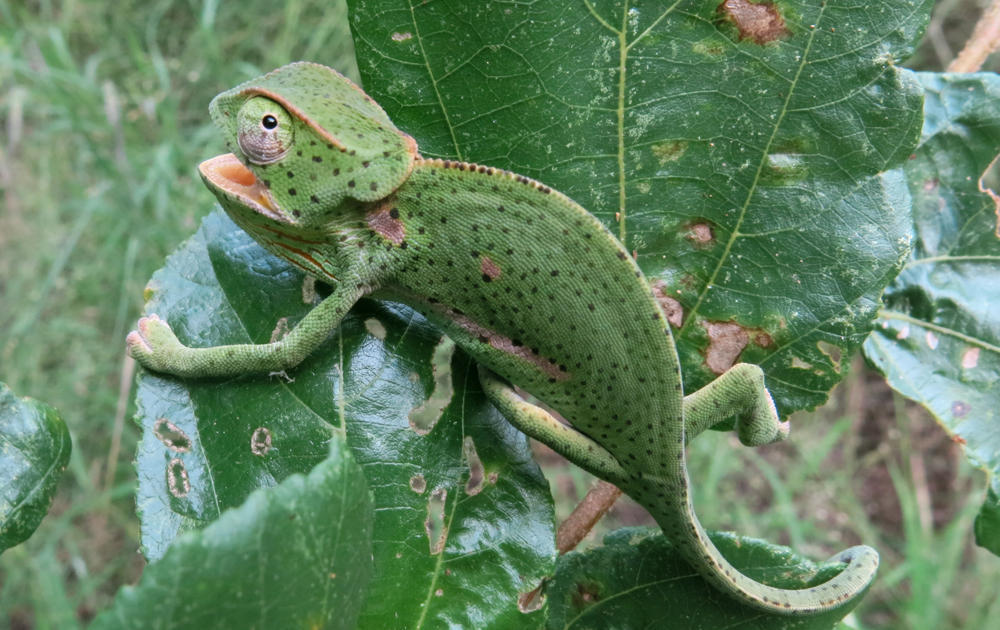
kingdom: Animalia
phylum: Chordata
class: Squamata
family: Chamaeleonidae
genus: Chamaeleo
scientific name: Chamaeleo dilepis
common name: Flapneck chameleon
